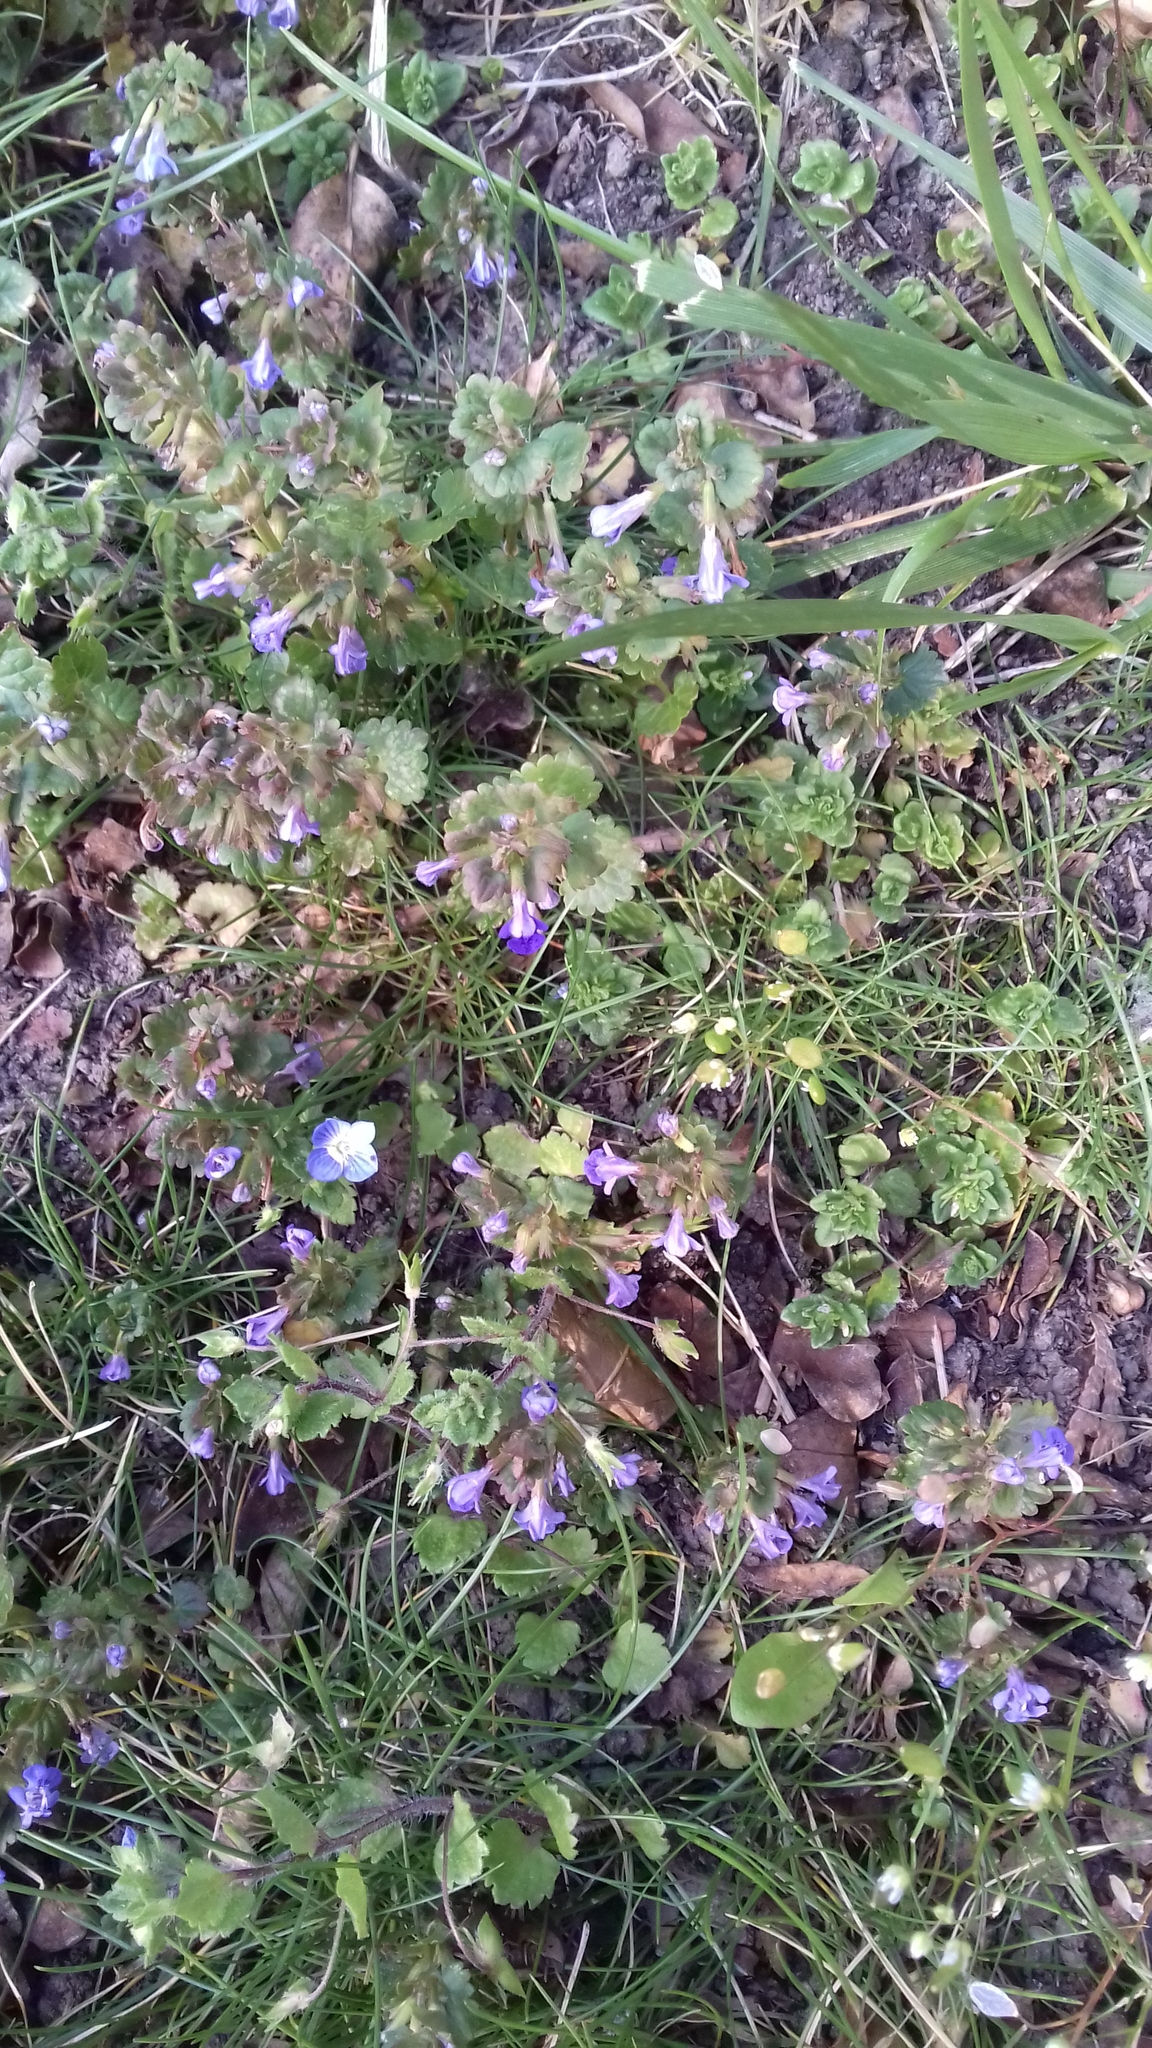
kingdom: Plantae
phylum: Tracheophyta
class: Magnoliopsida
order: Lamiales
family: Lamiaceae
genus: Glechoma
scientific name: Glechoma hederacea
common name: Ground ivy
